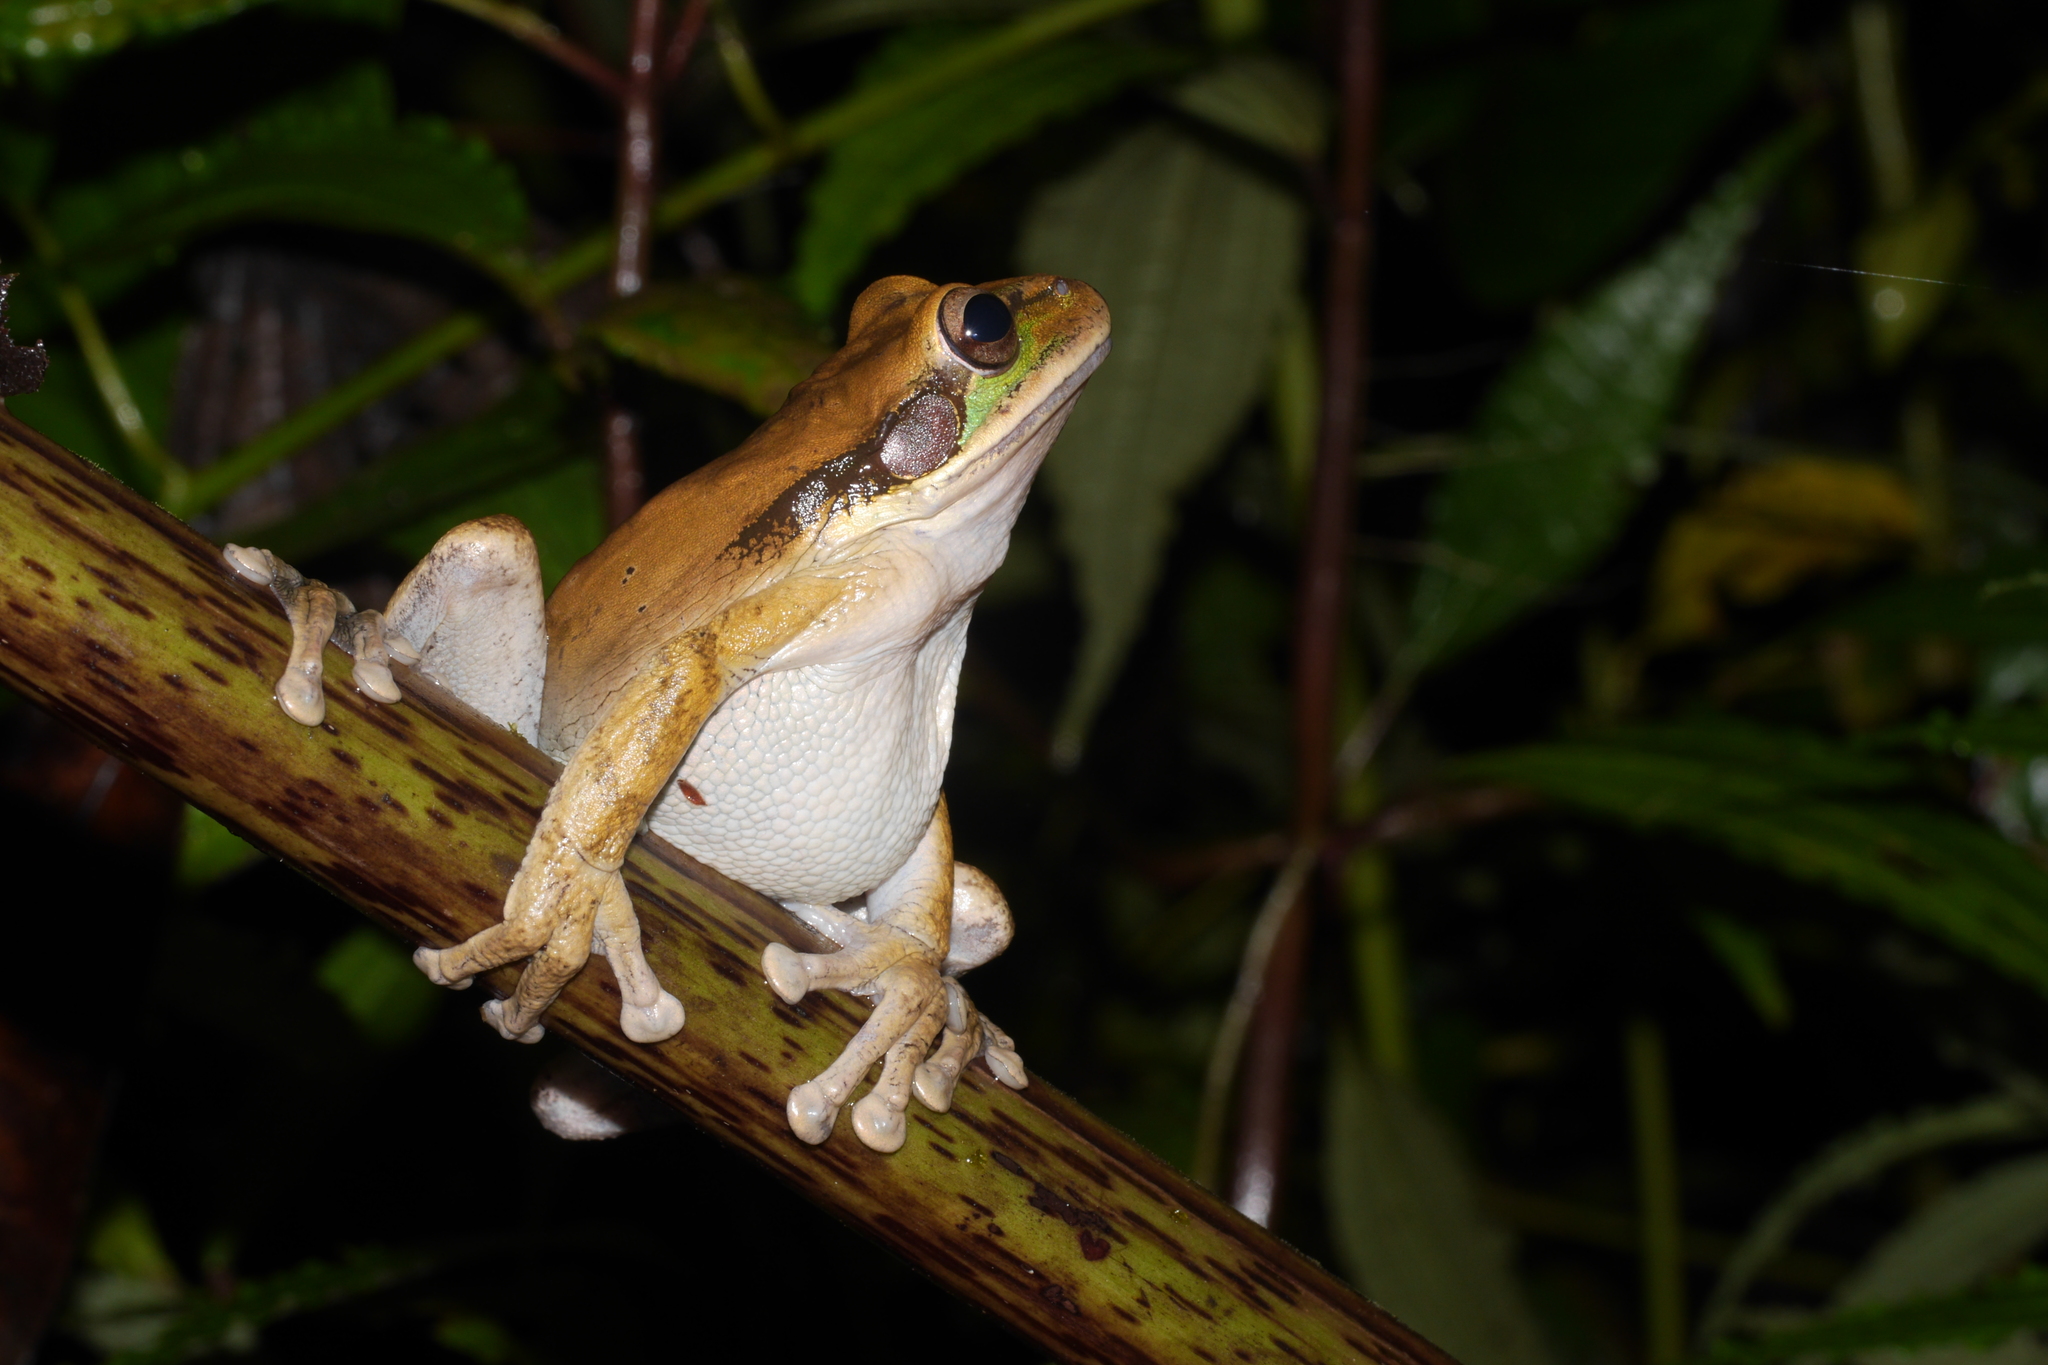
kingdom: Animalia
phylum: Chordata
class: Amphibia
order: Anura
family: Hylidae
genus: Smilisca
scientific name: Smilisca phaeota
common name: Central american smilisca
